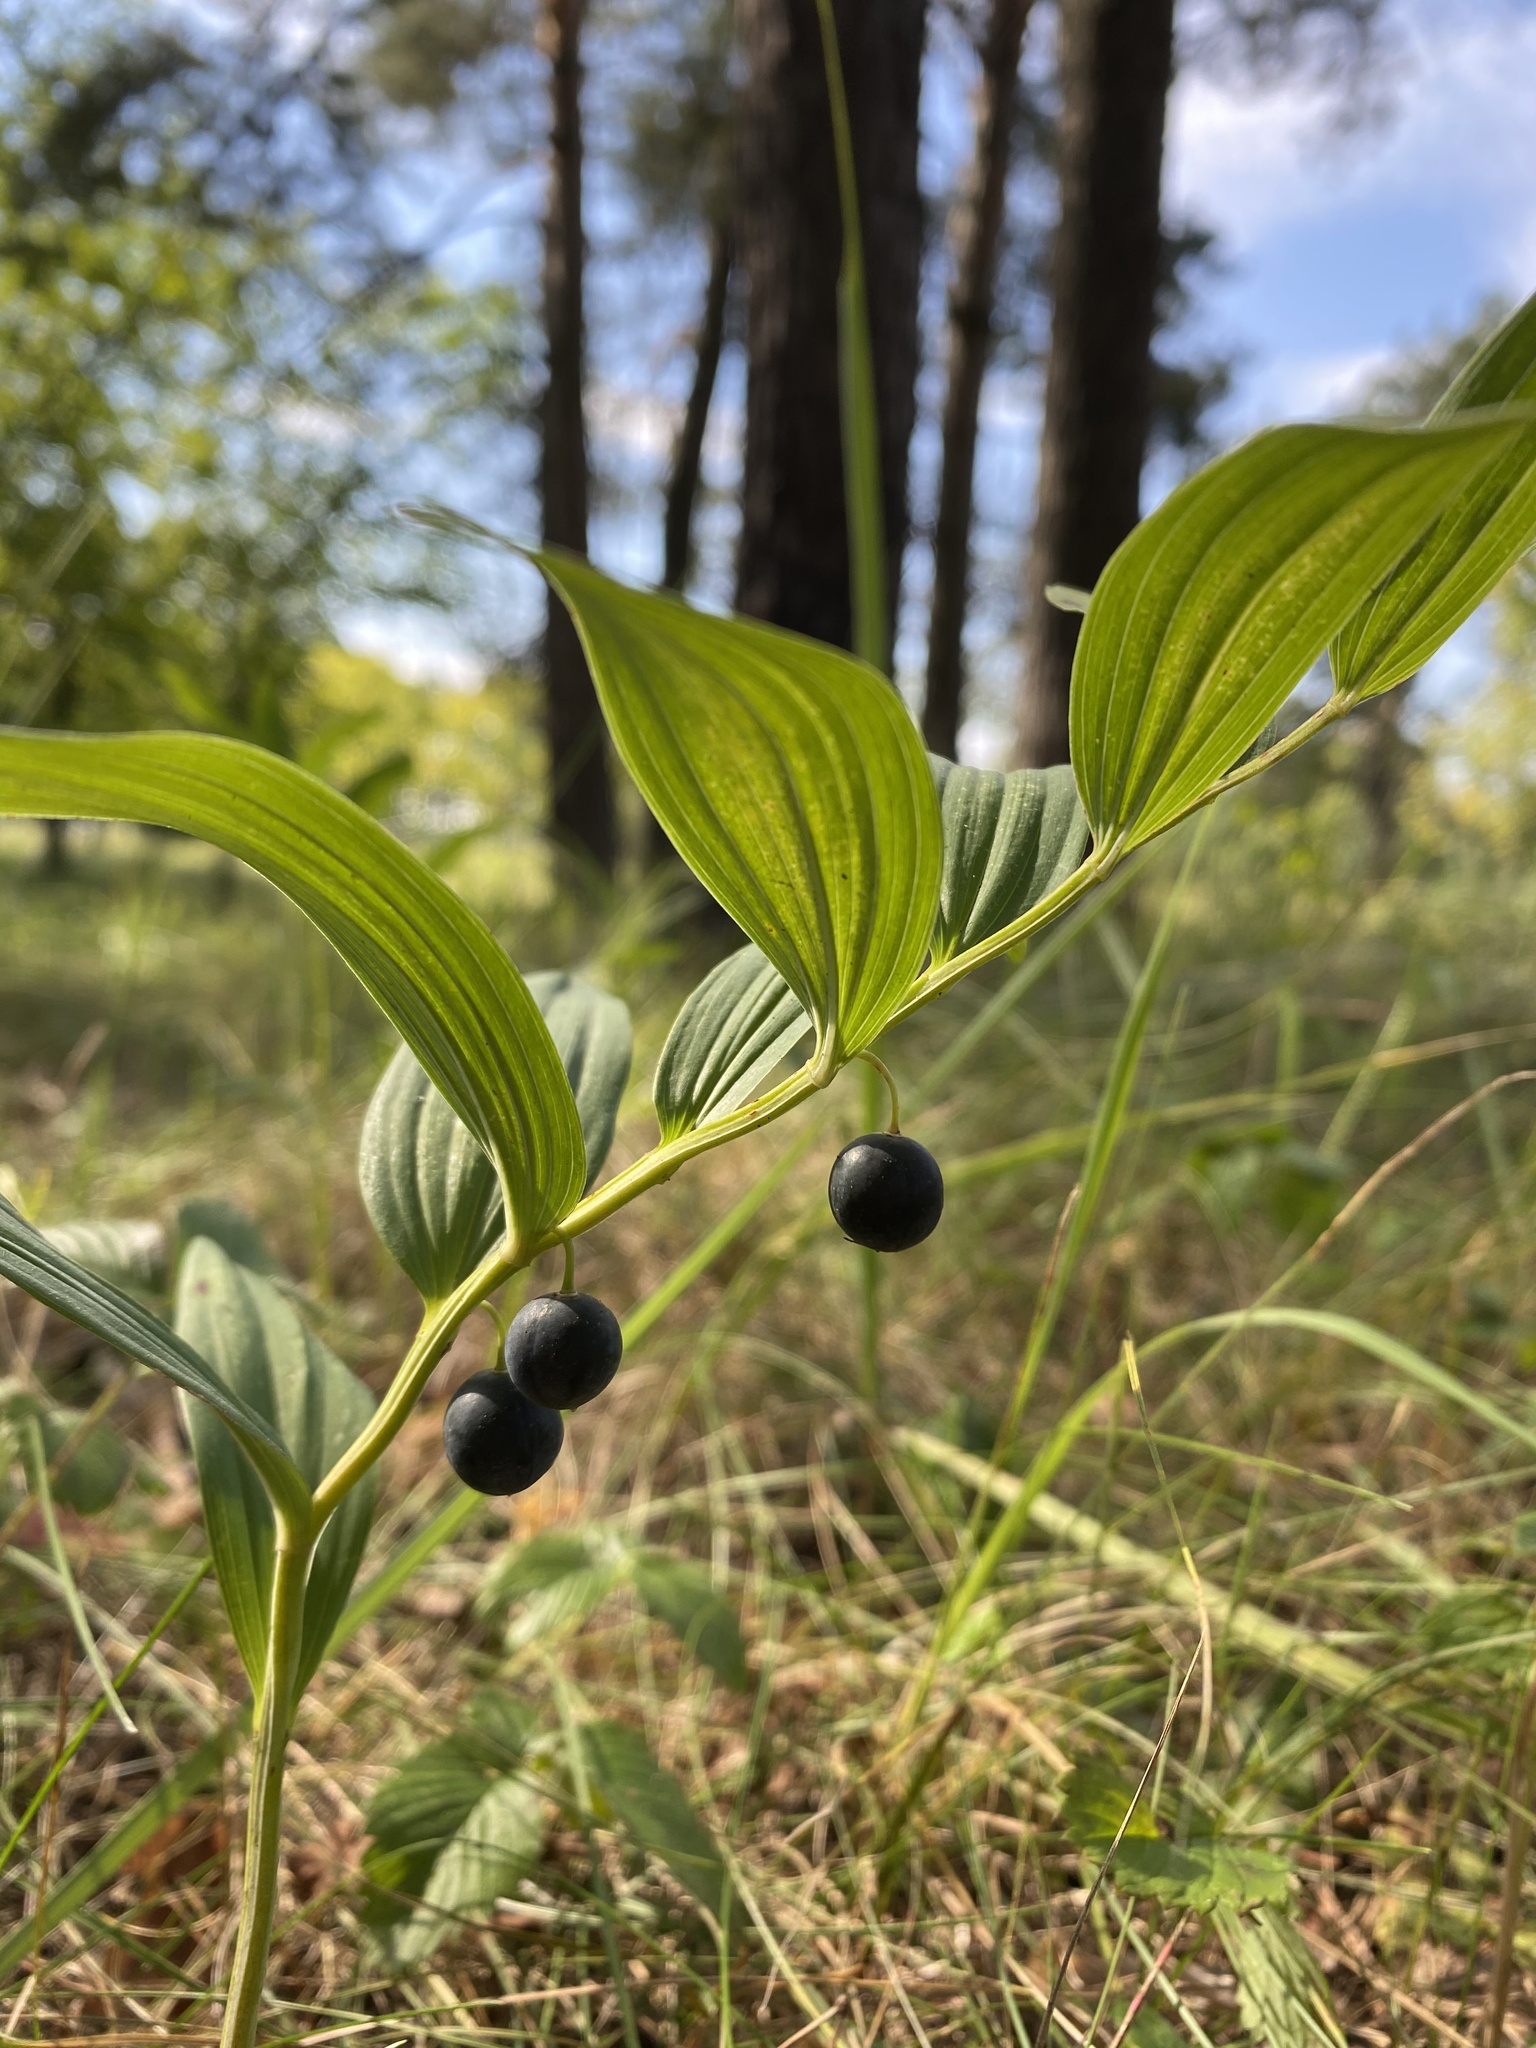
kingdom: Plantae
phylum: Tracheophyta
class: Liliopsida
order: Asparagales
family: Asparagaceae
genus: Polygonatum
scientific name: Polygonatum odoratum
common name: Angular solomon's-seal
